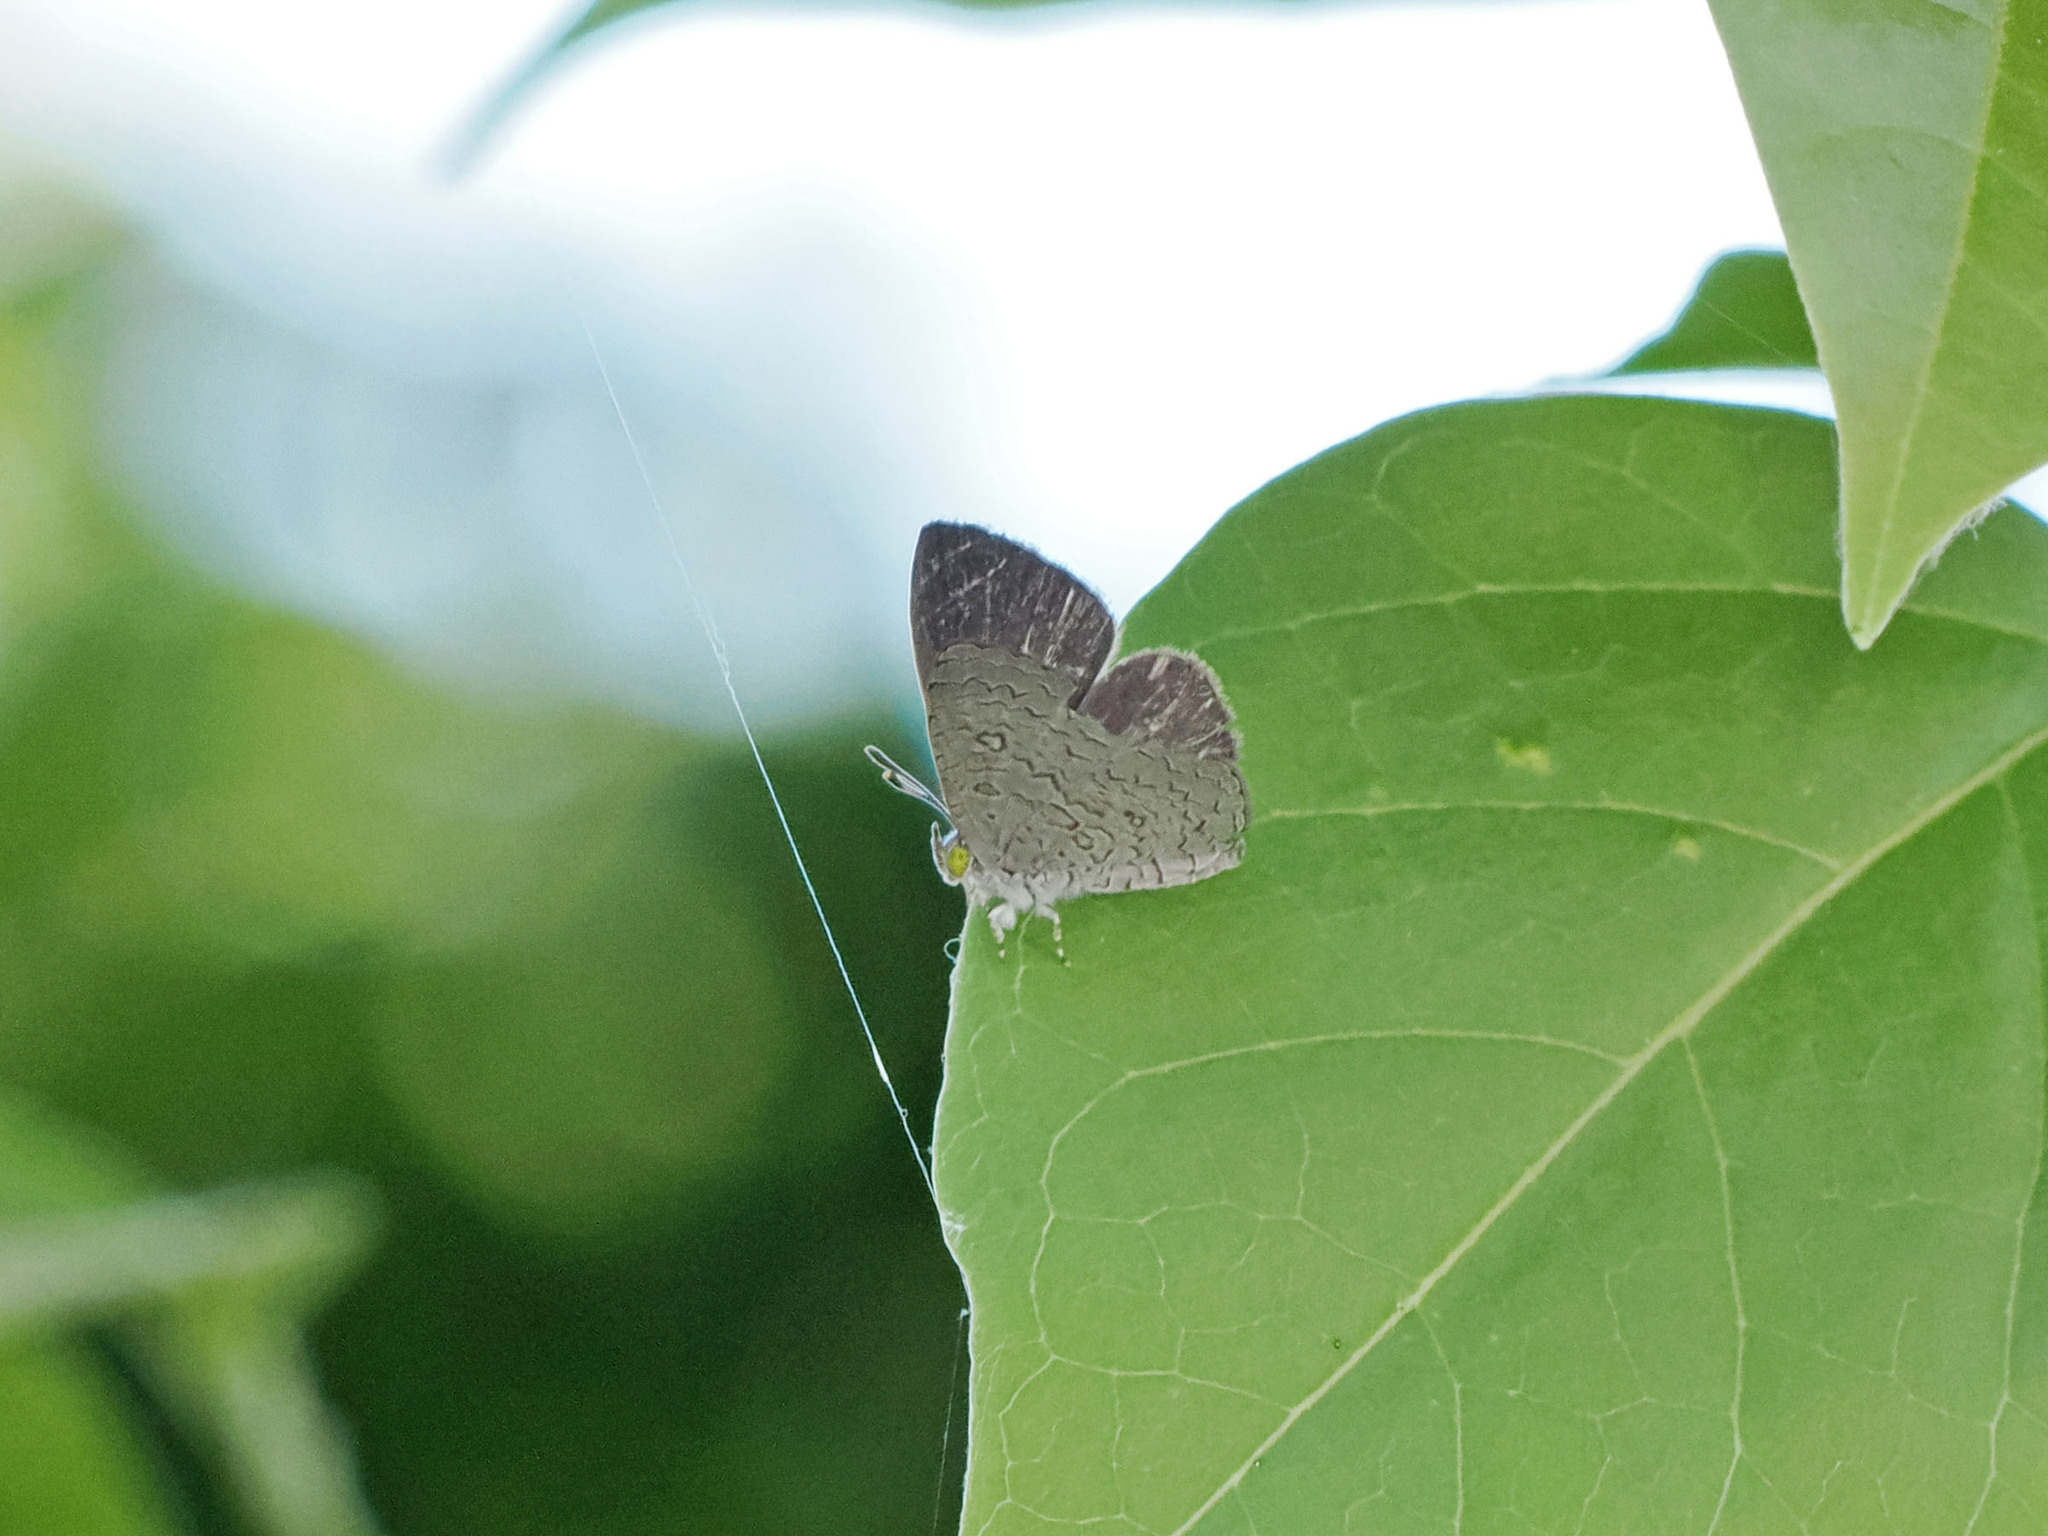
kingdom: Animalia
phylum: Arthropoda
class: Insecta
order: Lepidoptera
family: Lycaenidae
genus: Spalgis
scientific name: Spalgis epius
